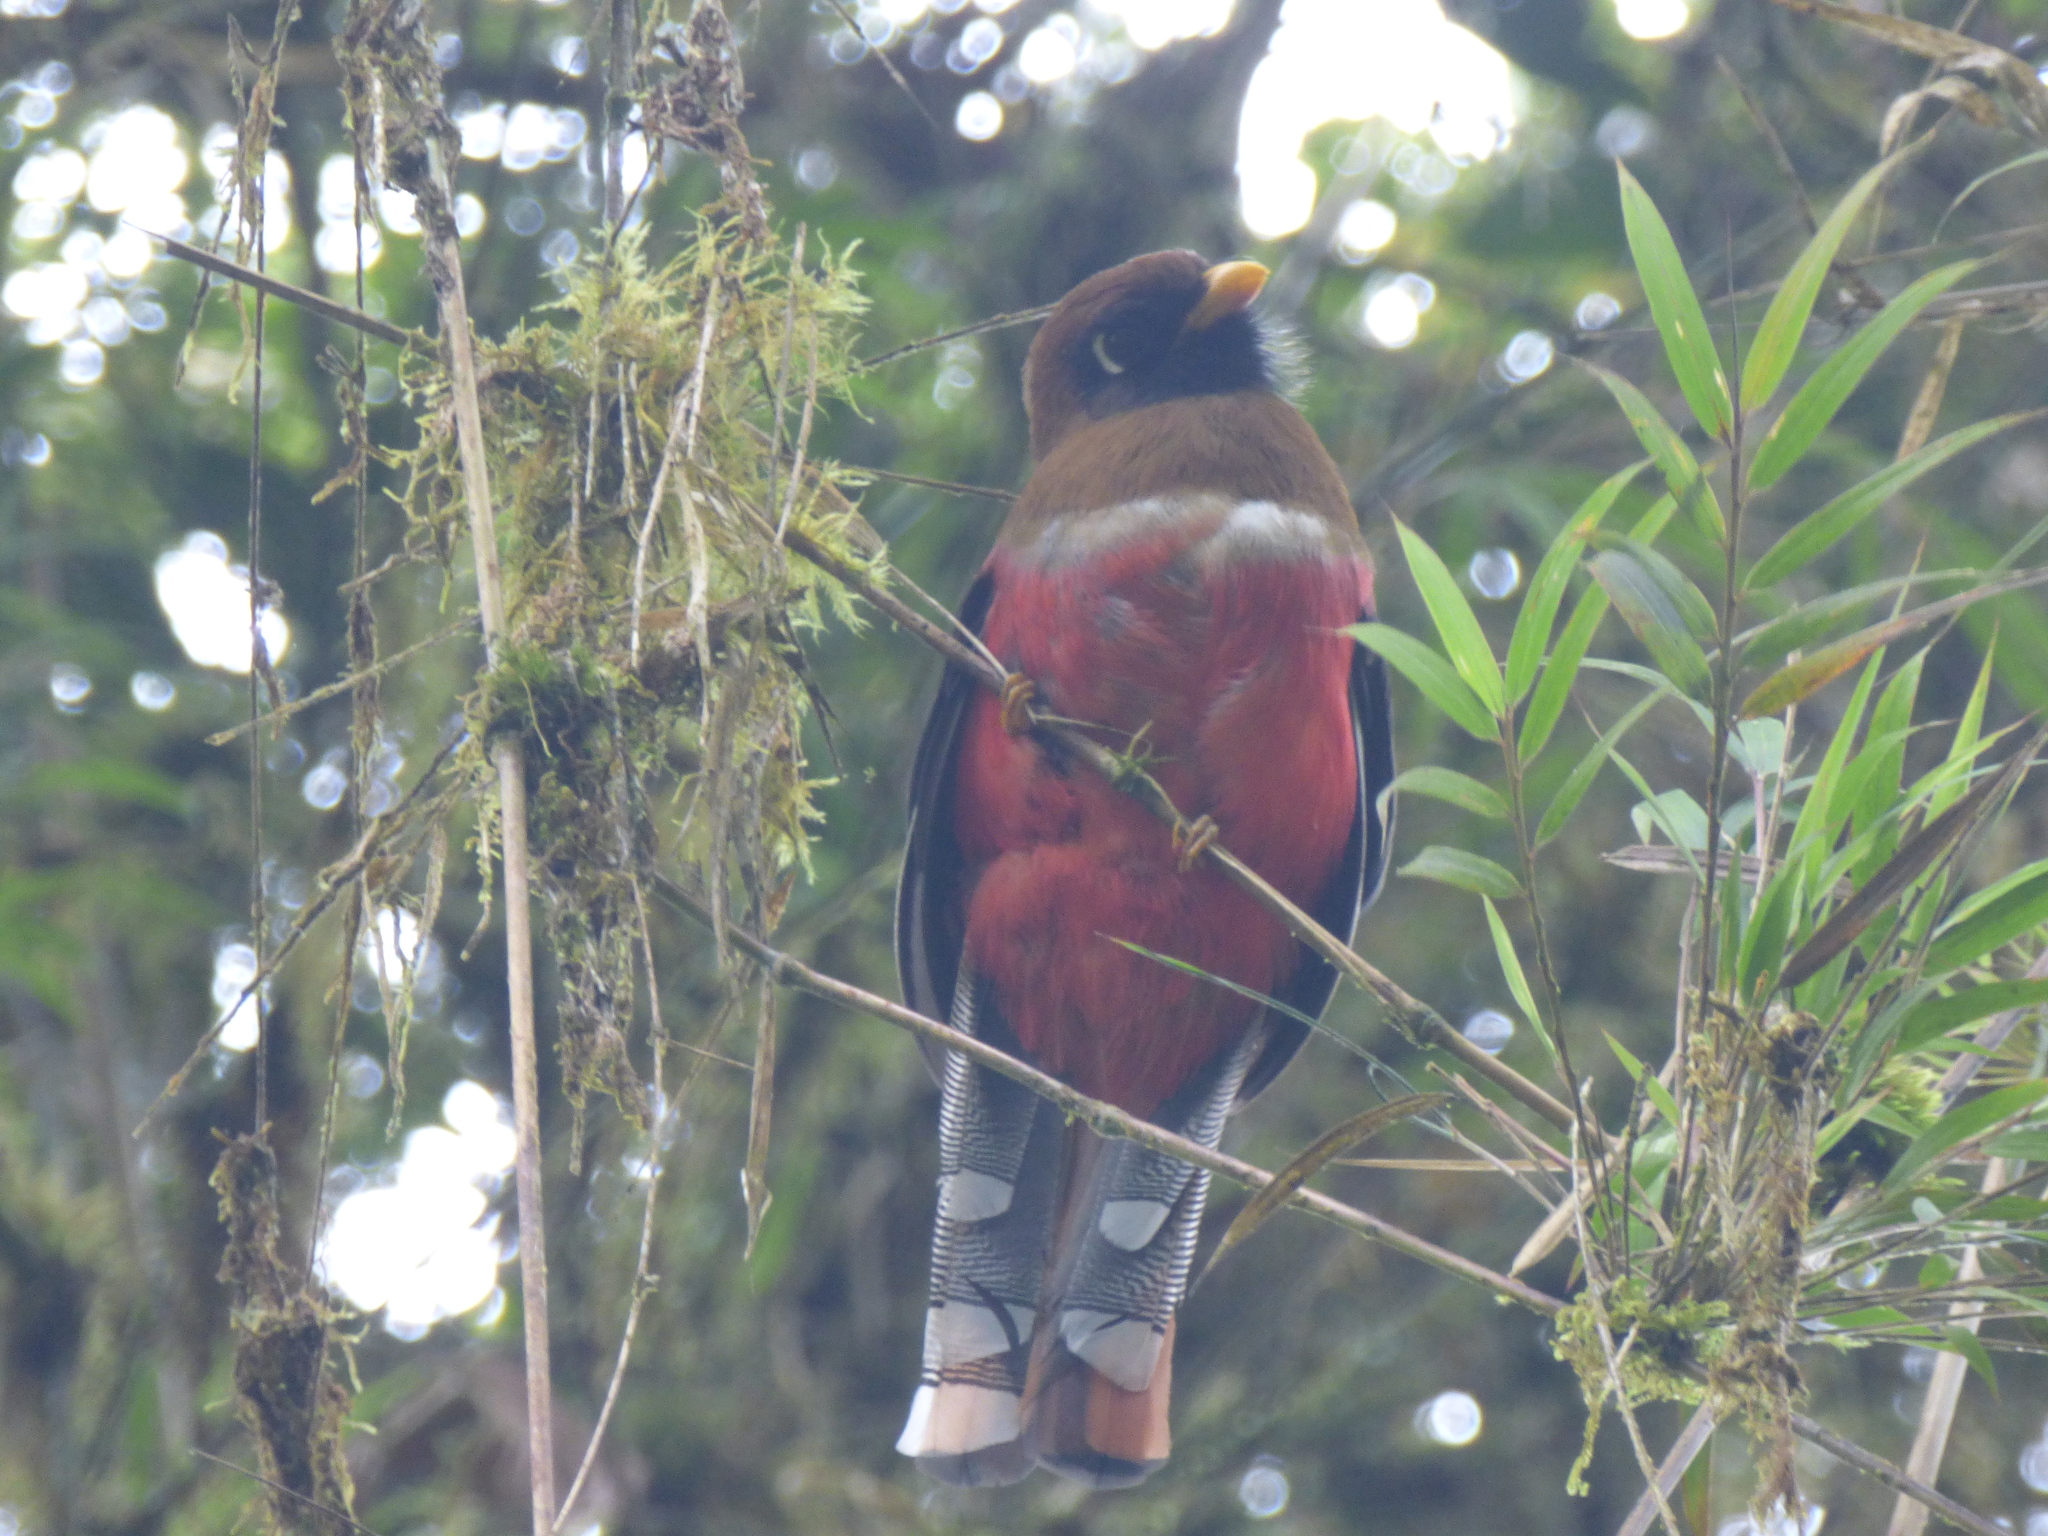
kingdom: Animalia
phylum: Chordata
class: Aves
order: Trogoniformes
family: Trogonidae
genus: Trogon
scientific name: Trogon personatus
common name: Masked trogon
